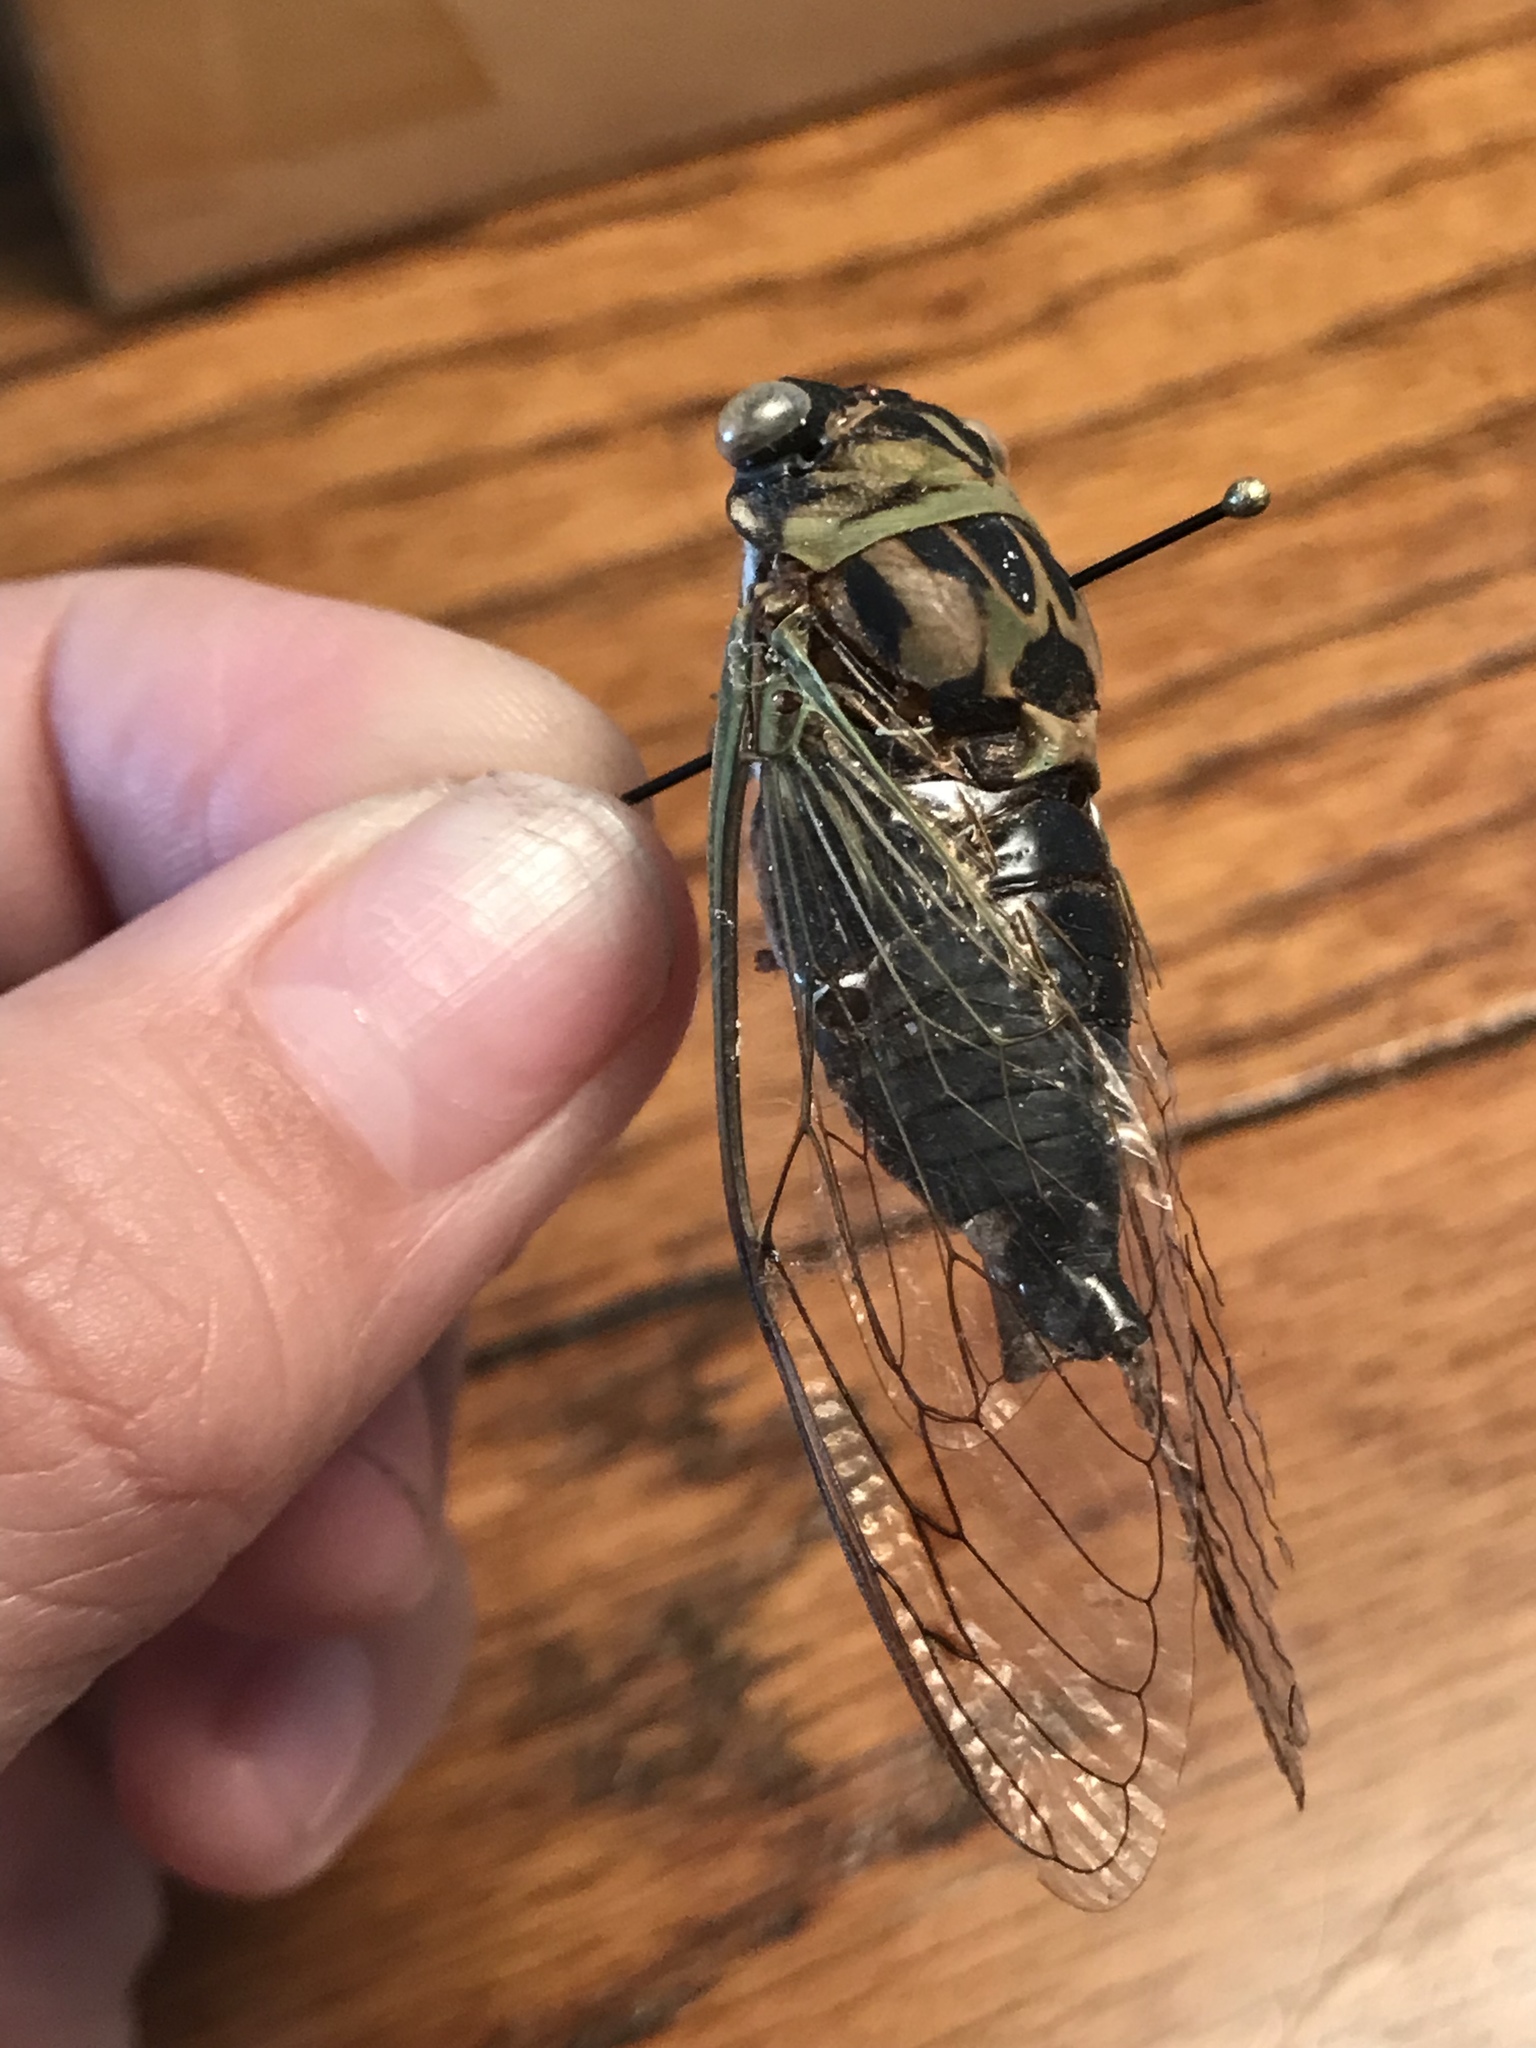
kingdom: Animalia
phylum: Arthropoda
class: Insecta
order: Hemiptera
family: Cicadidae
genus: Neotibicen
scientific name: Neotibicen pruinosus
